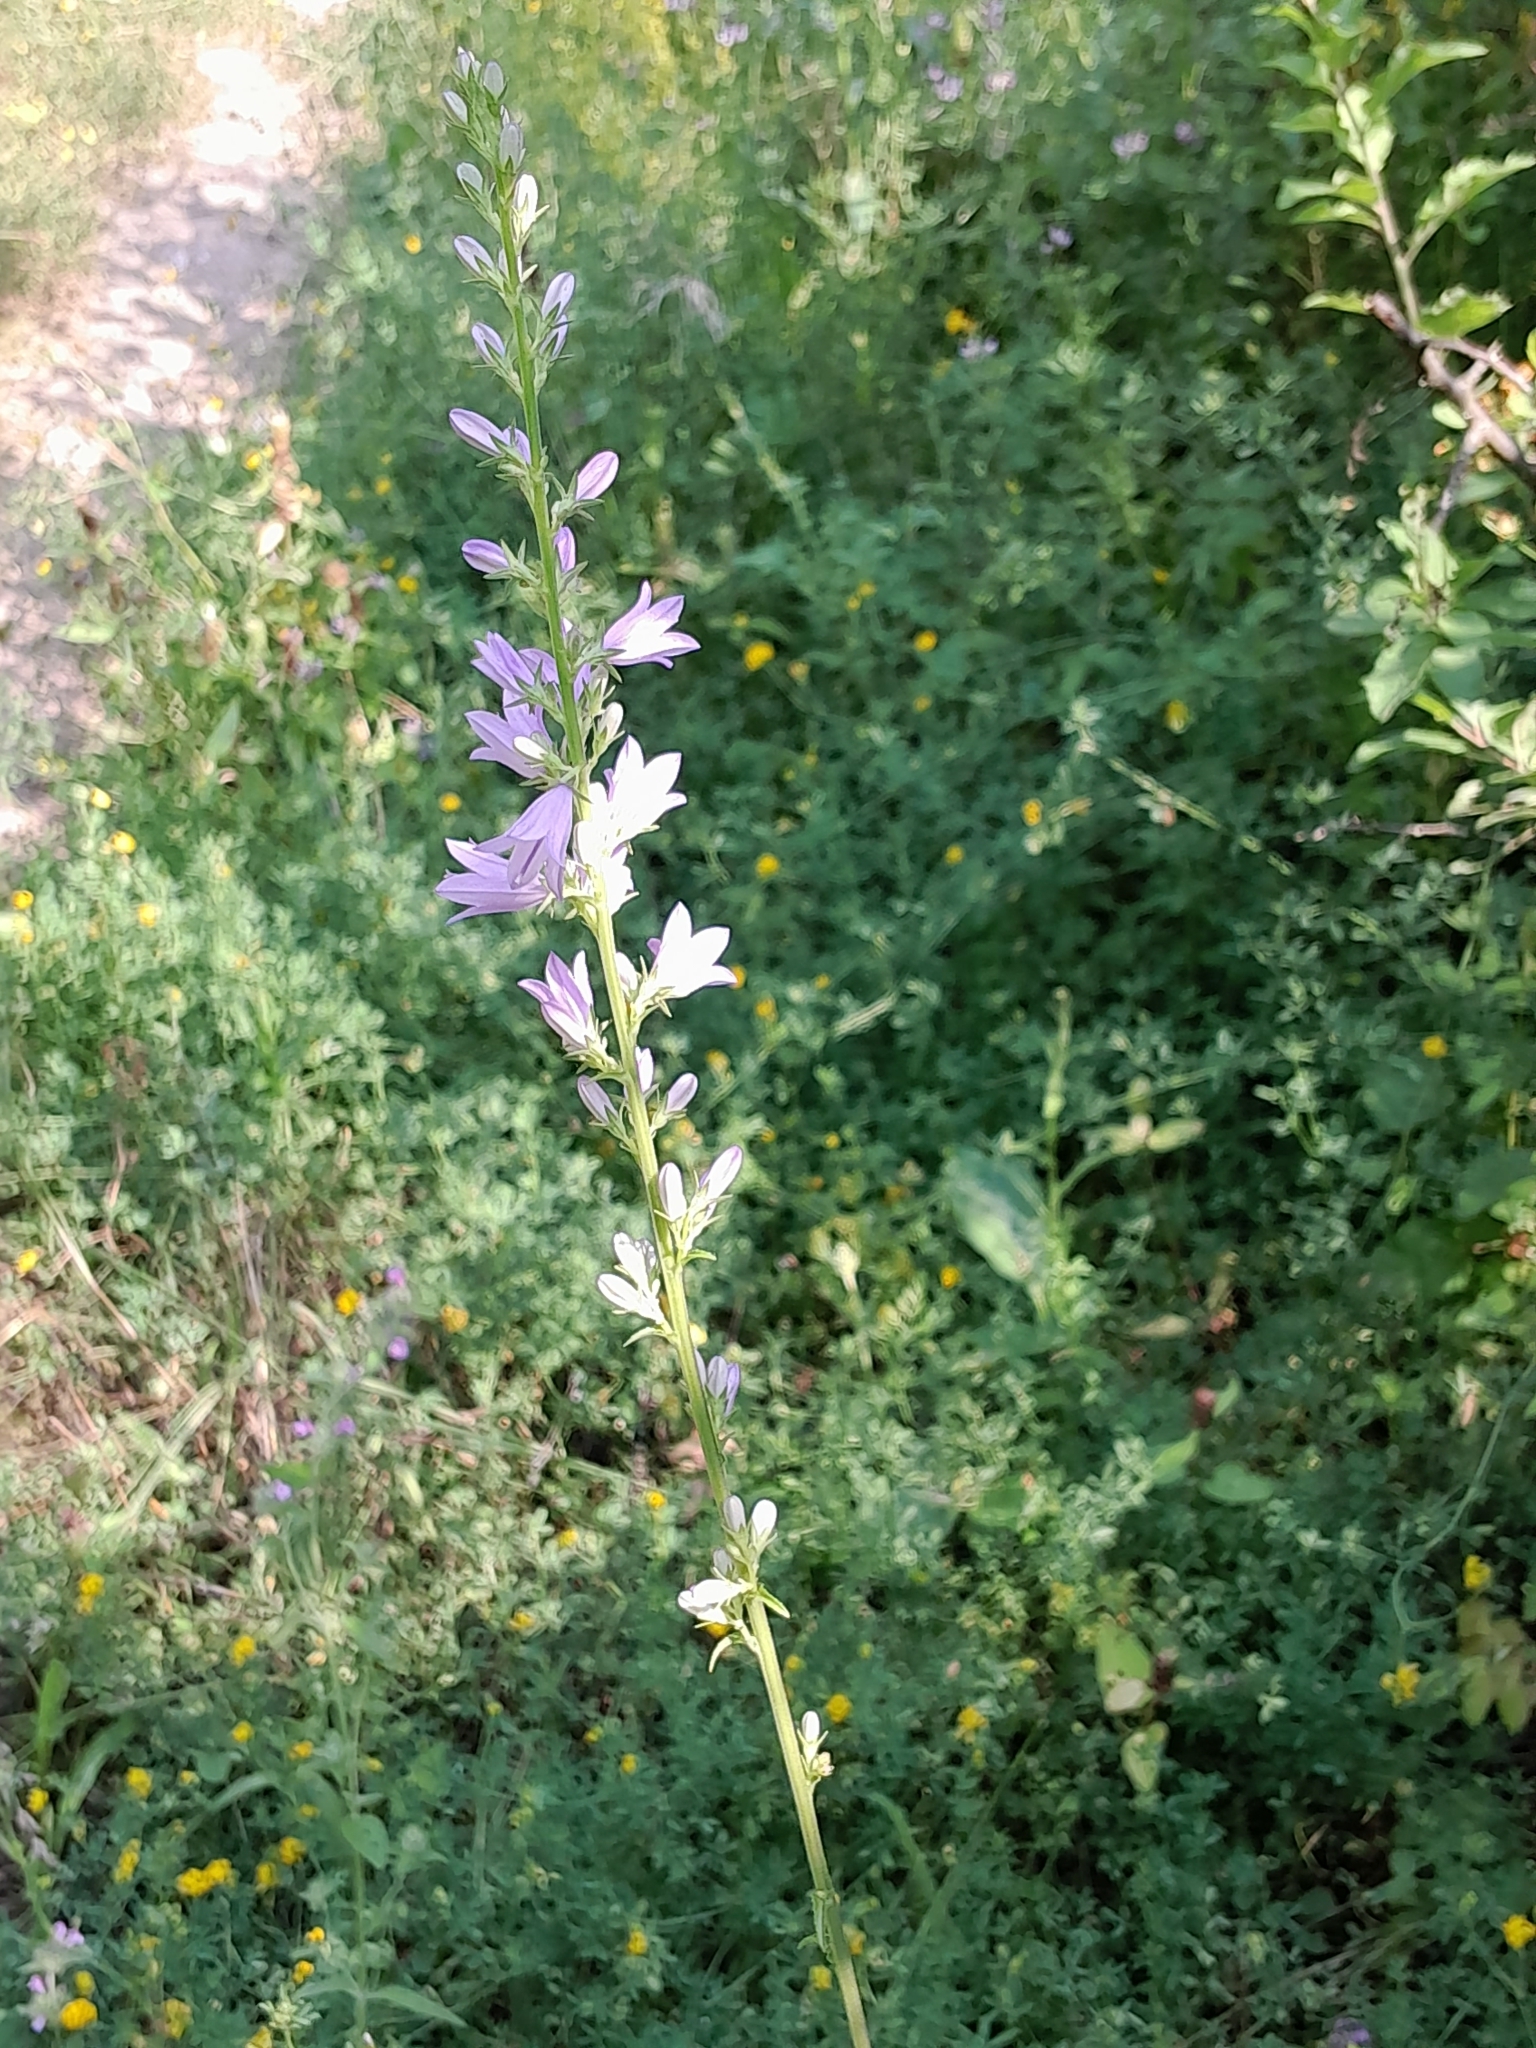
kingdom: Plantae
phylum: Tracheophyta
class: Magnoliopsida
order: Asterales
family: Campanulaceae
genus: Campanula
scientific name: Campanula bononiensis
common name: Pale bellflower
